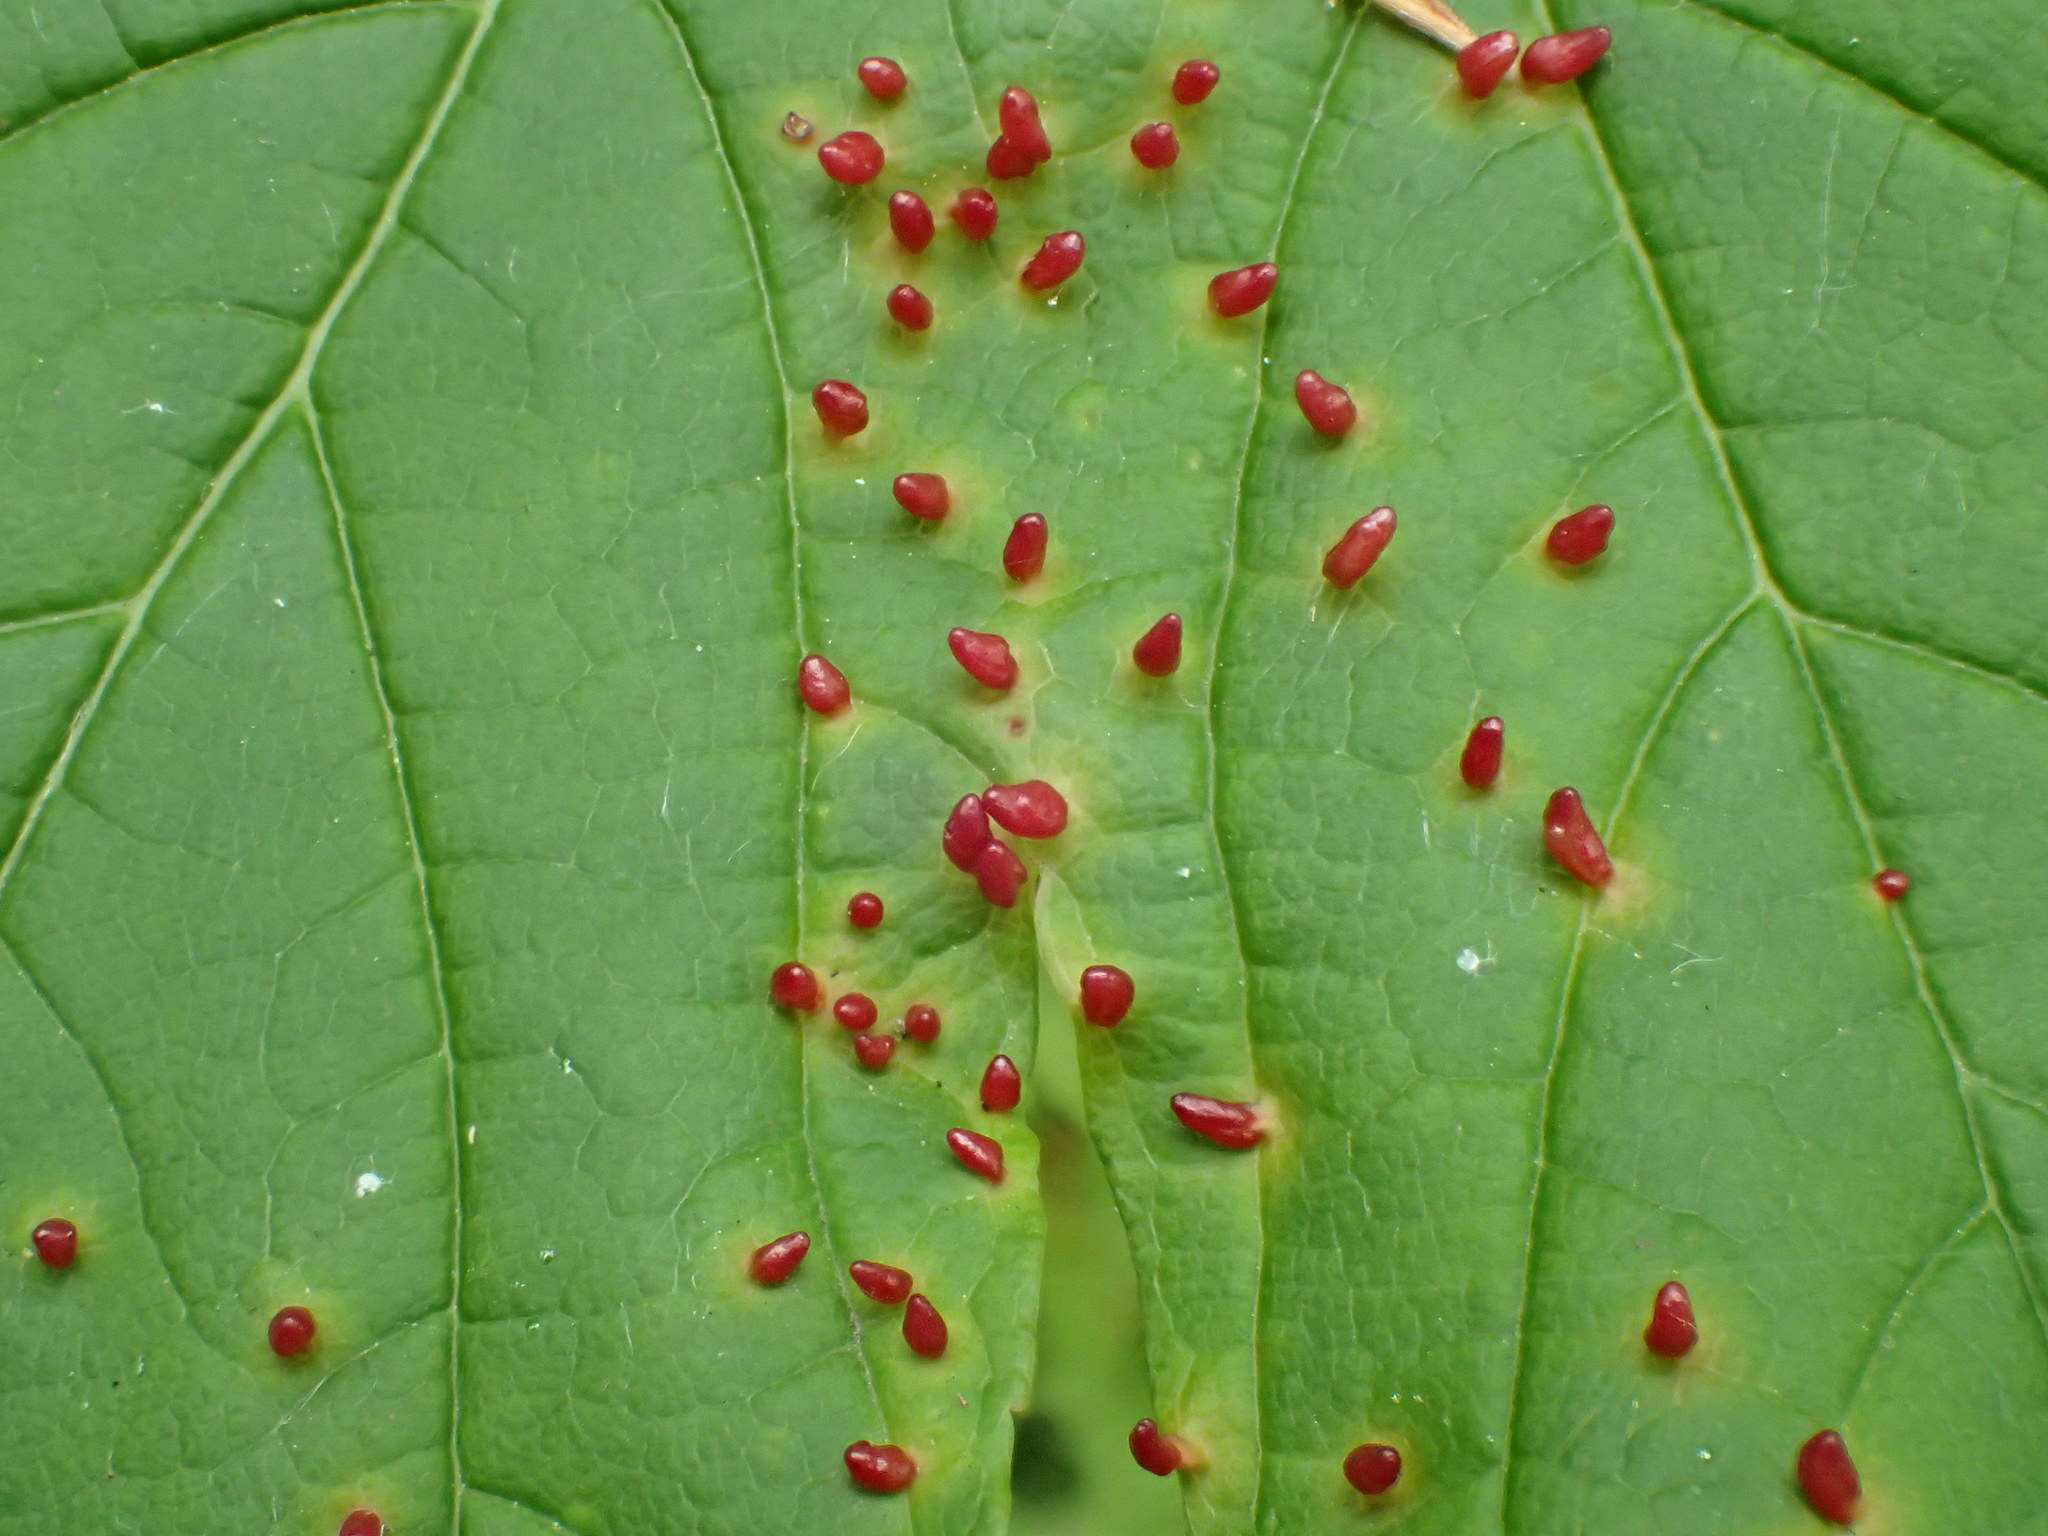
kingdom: Animalia
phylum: Arthropoda
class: Arachnida
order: Trombidiformes
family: Eriophyidae
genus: Aceria
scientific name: Aceria cephaloneus
